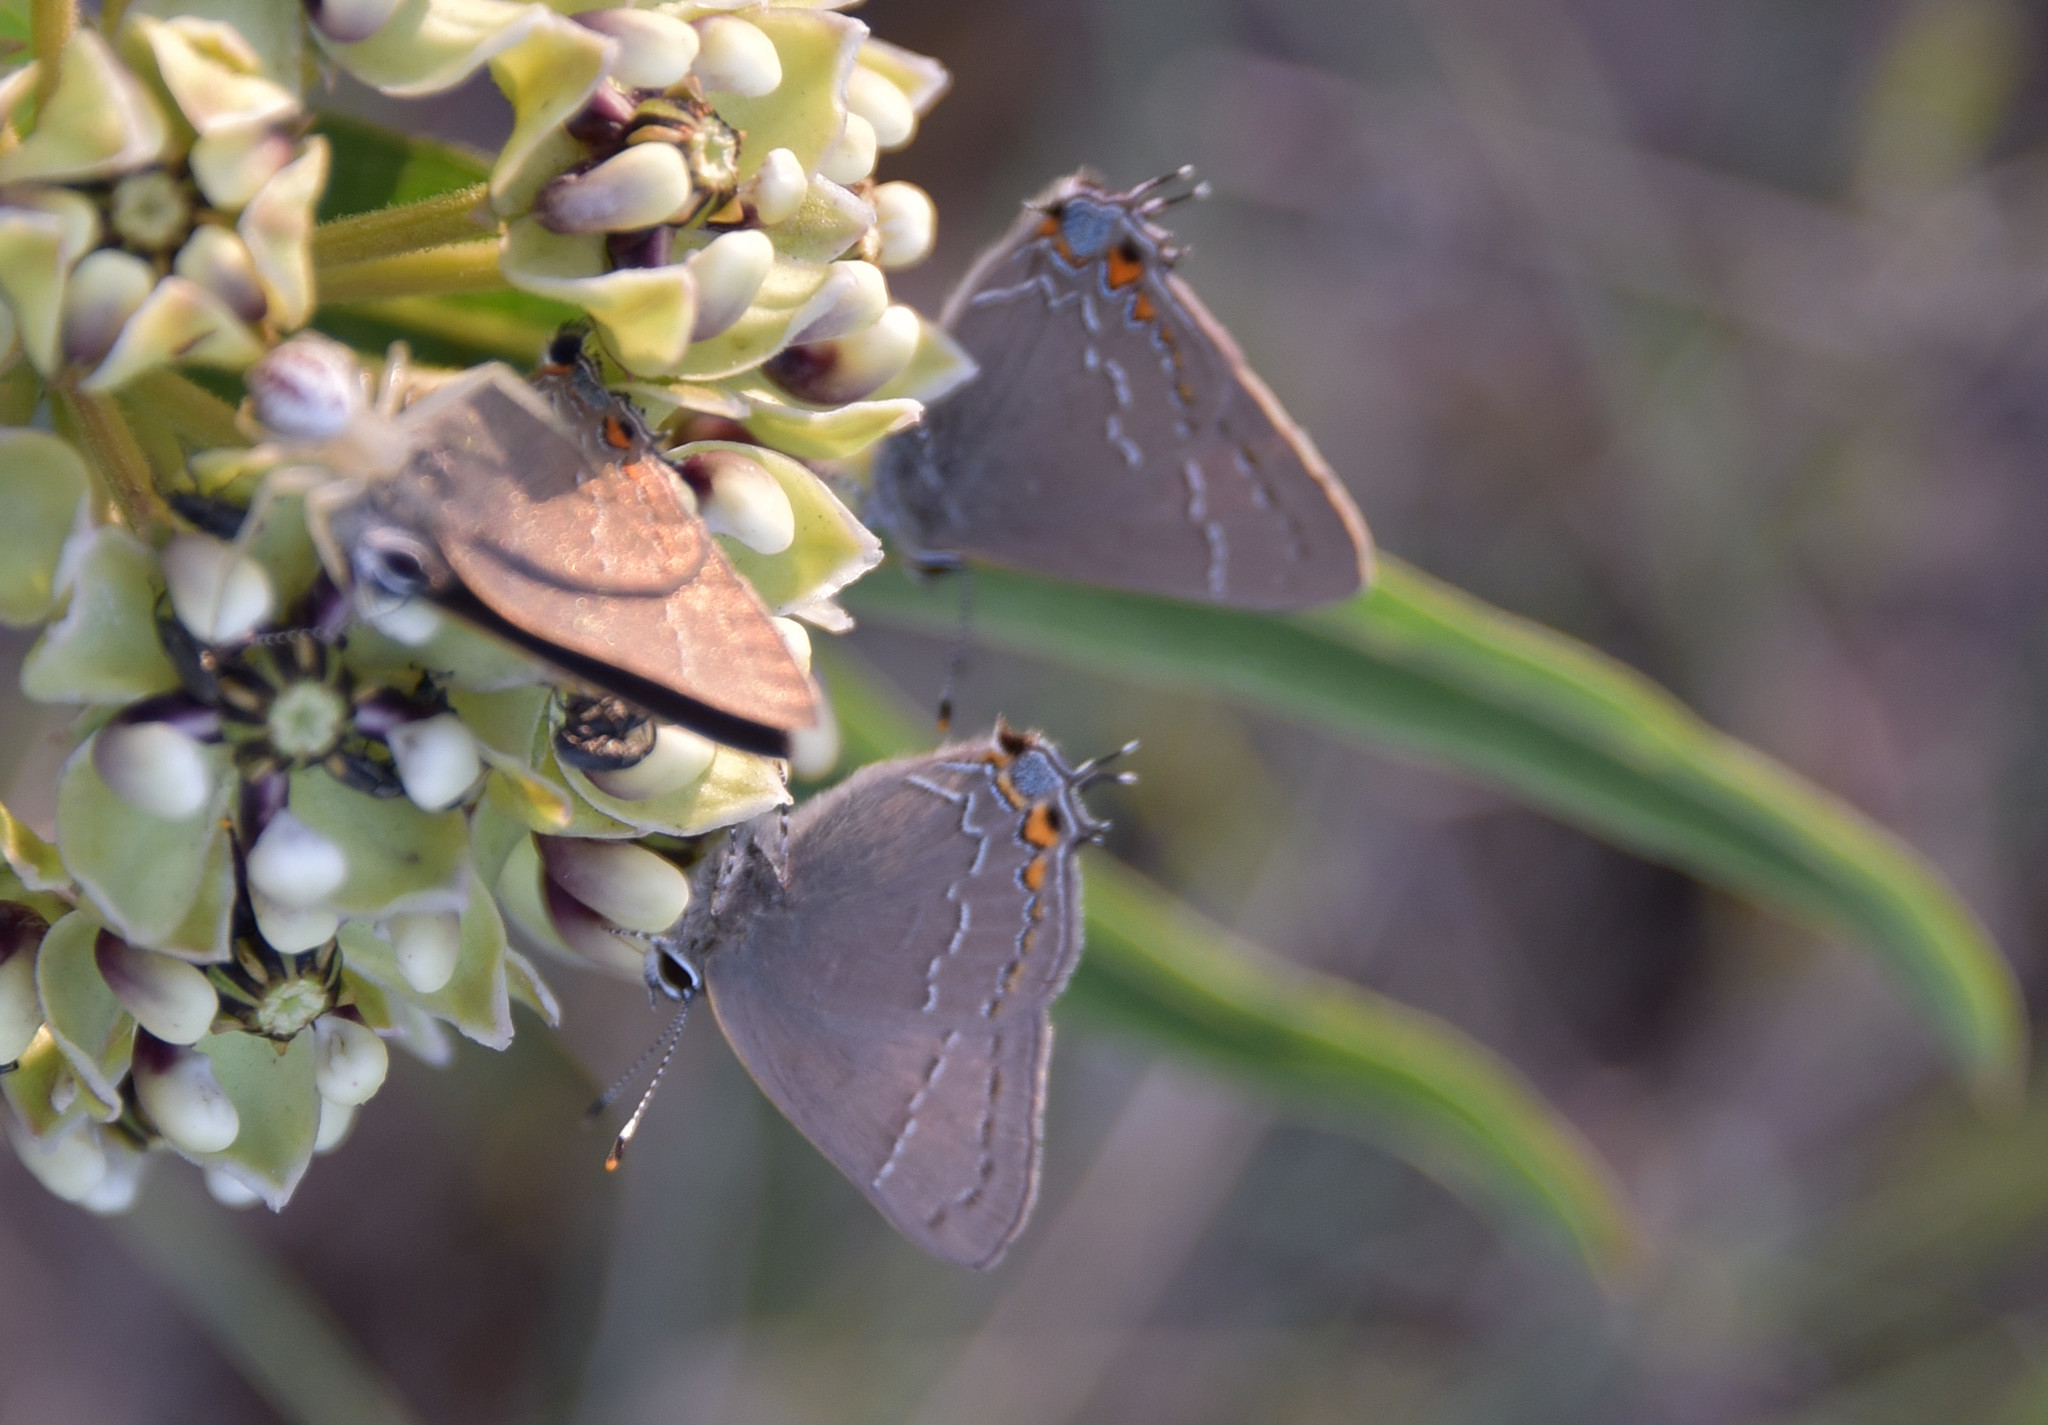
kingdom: Animalia
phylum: Arthropoda
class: Insecta
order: Lepidoptera
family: Lycaenidae
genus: Fixsenia
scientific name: Fixsenia favonius
